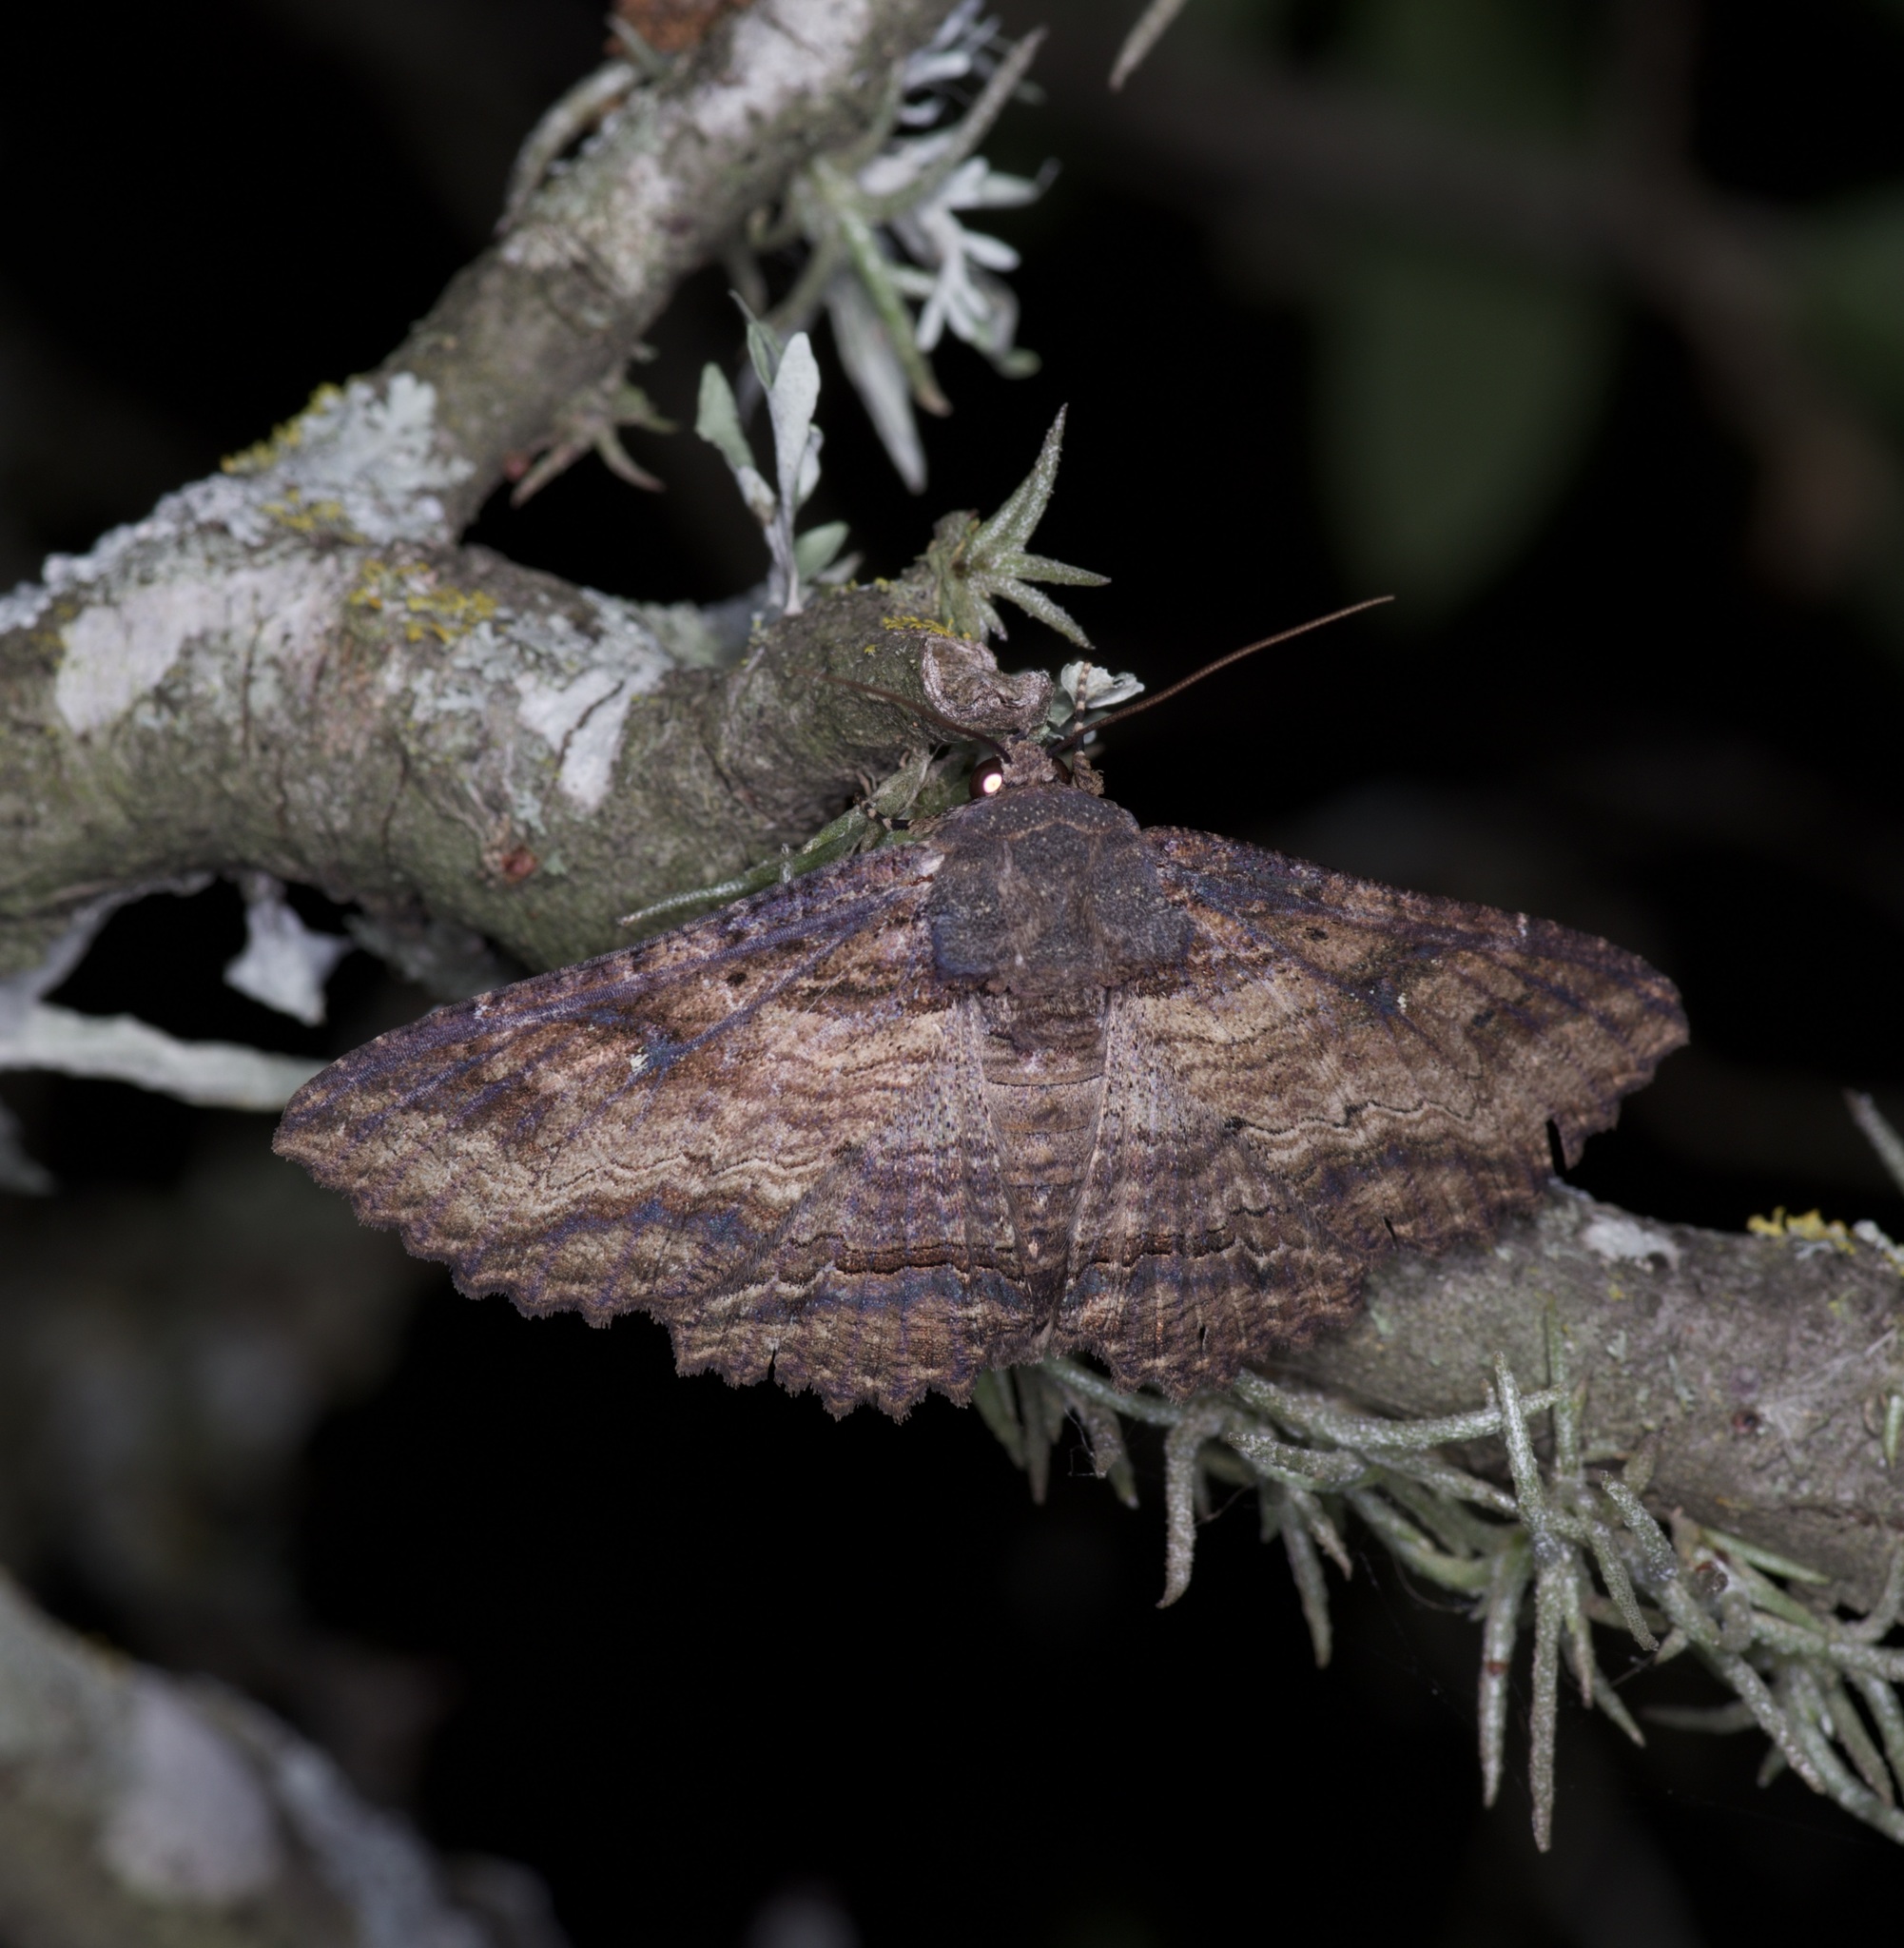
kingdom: Animalia
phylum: Arthropoda
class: Insecta
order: Lepidoptera
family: Erebidae
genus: Zale
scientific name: Zale lunata
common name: Lunate zale moth
